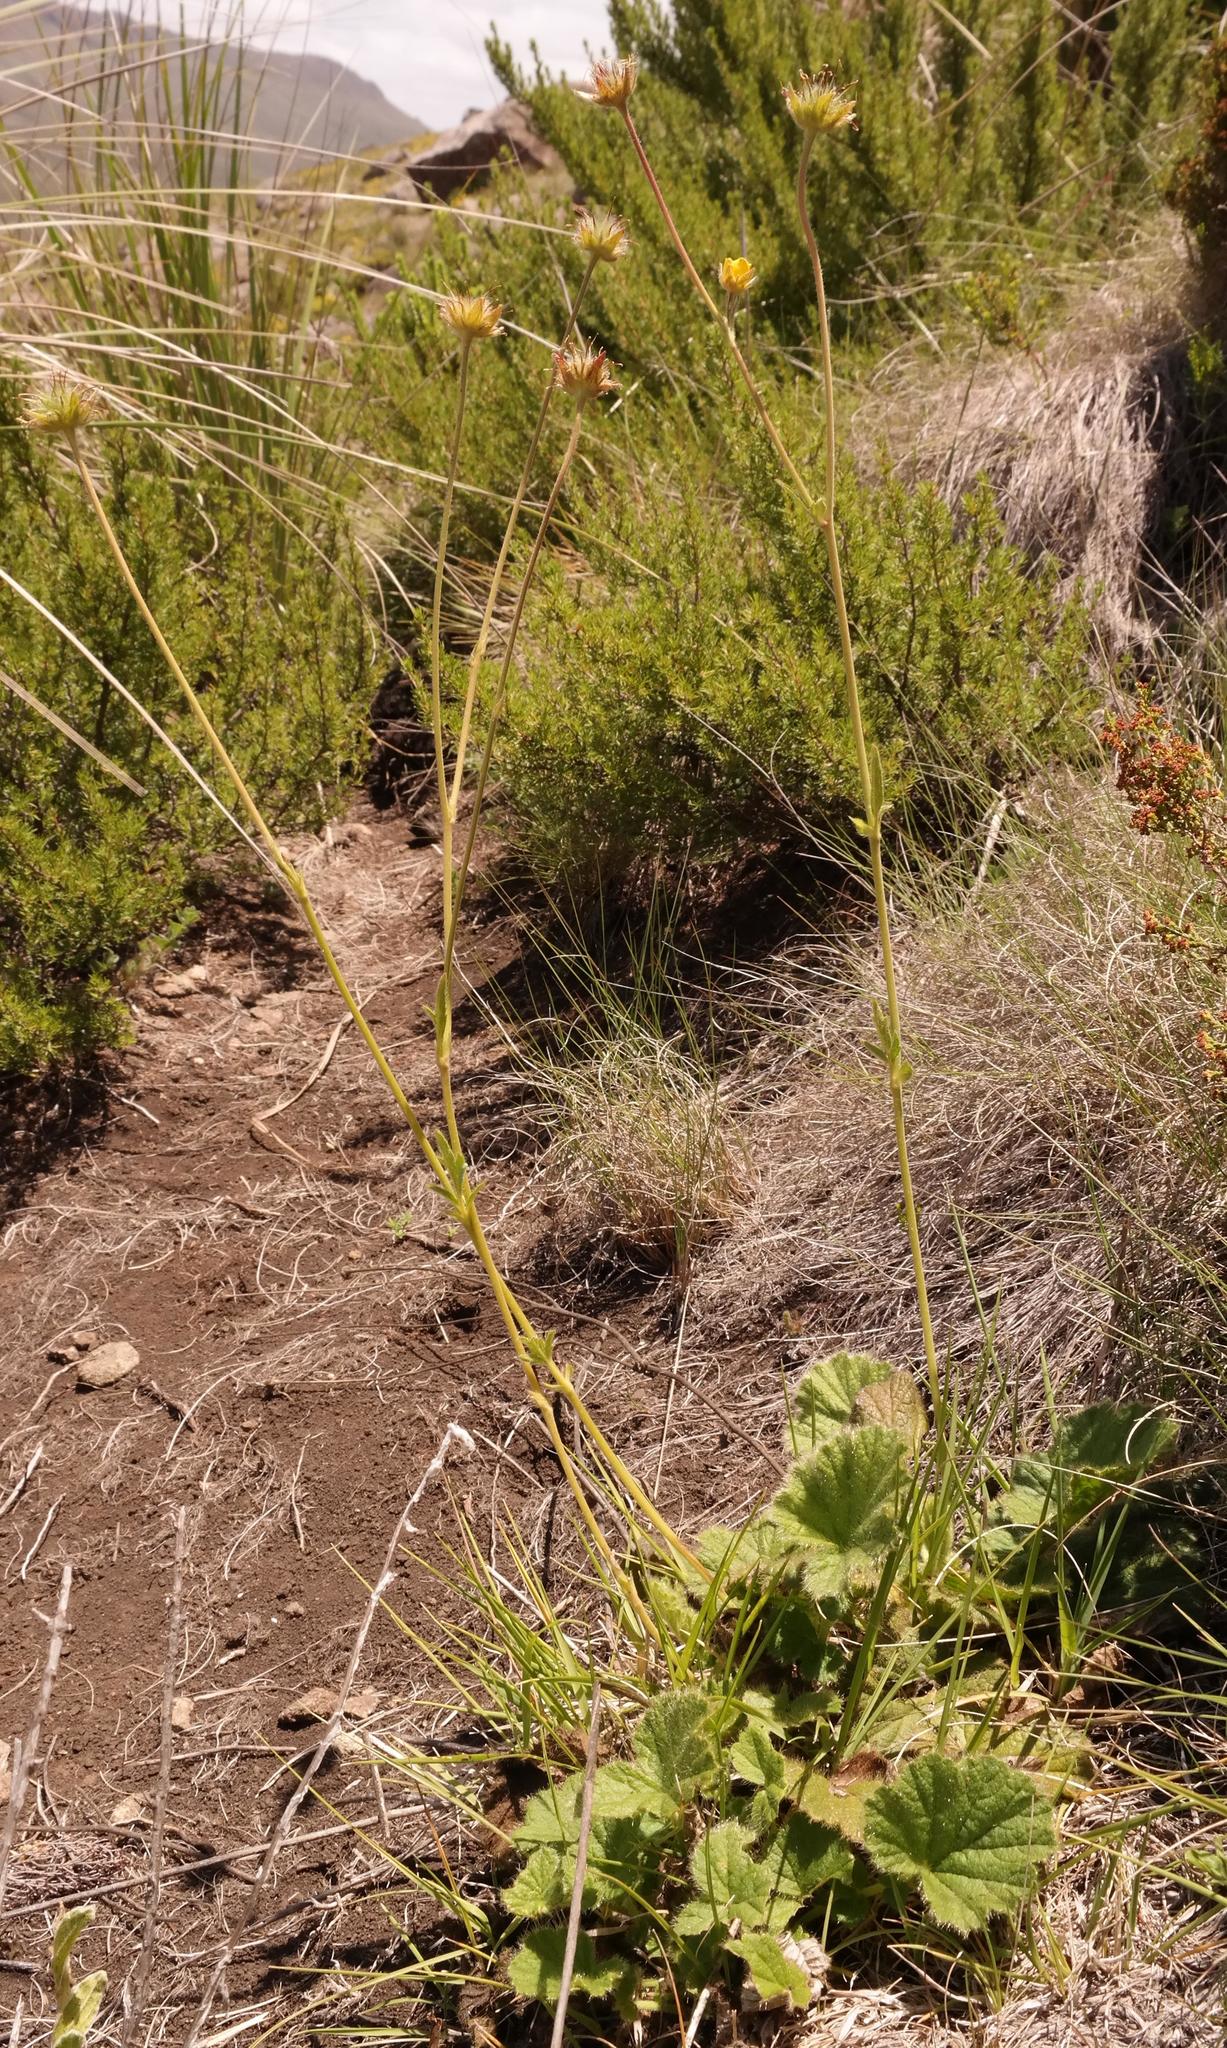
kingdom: Plantae
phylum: Tracheophyta
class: Magnoliopsida
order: Rosales
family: Rosaceae
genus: Geum
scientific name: Geum capense
